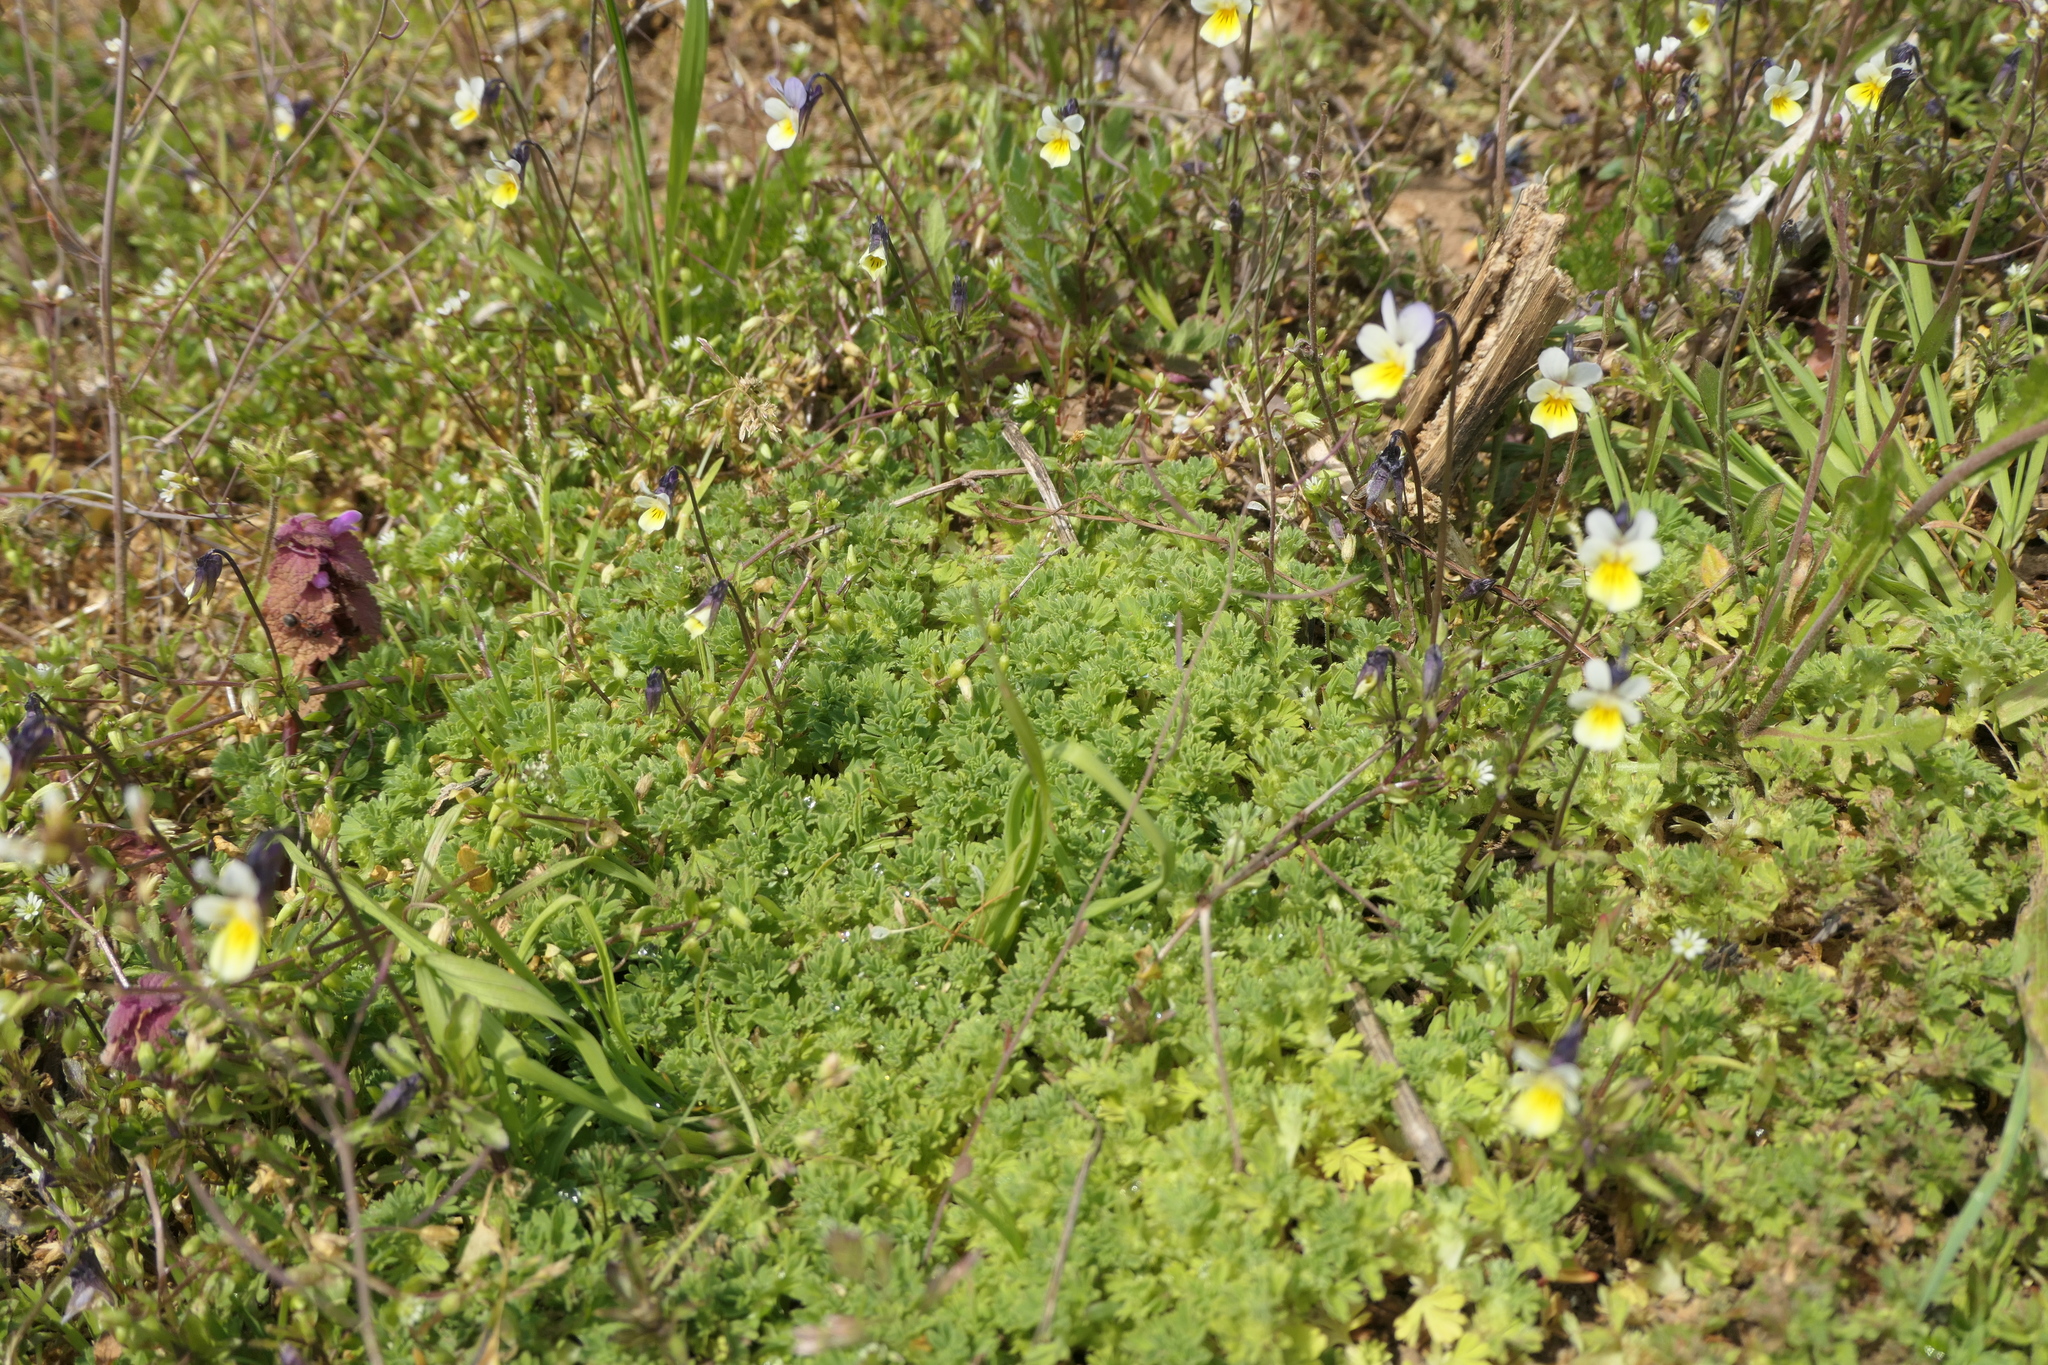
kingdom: Plantae
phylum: Tracheophyta
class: Magnoliopsida
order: Rosales
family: Rosaceae
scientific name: Rosaceae
